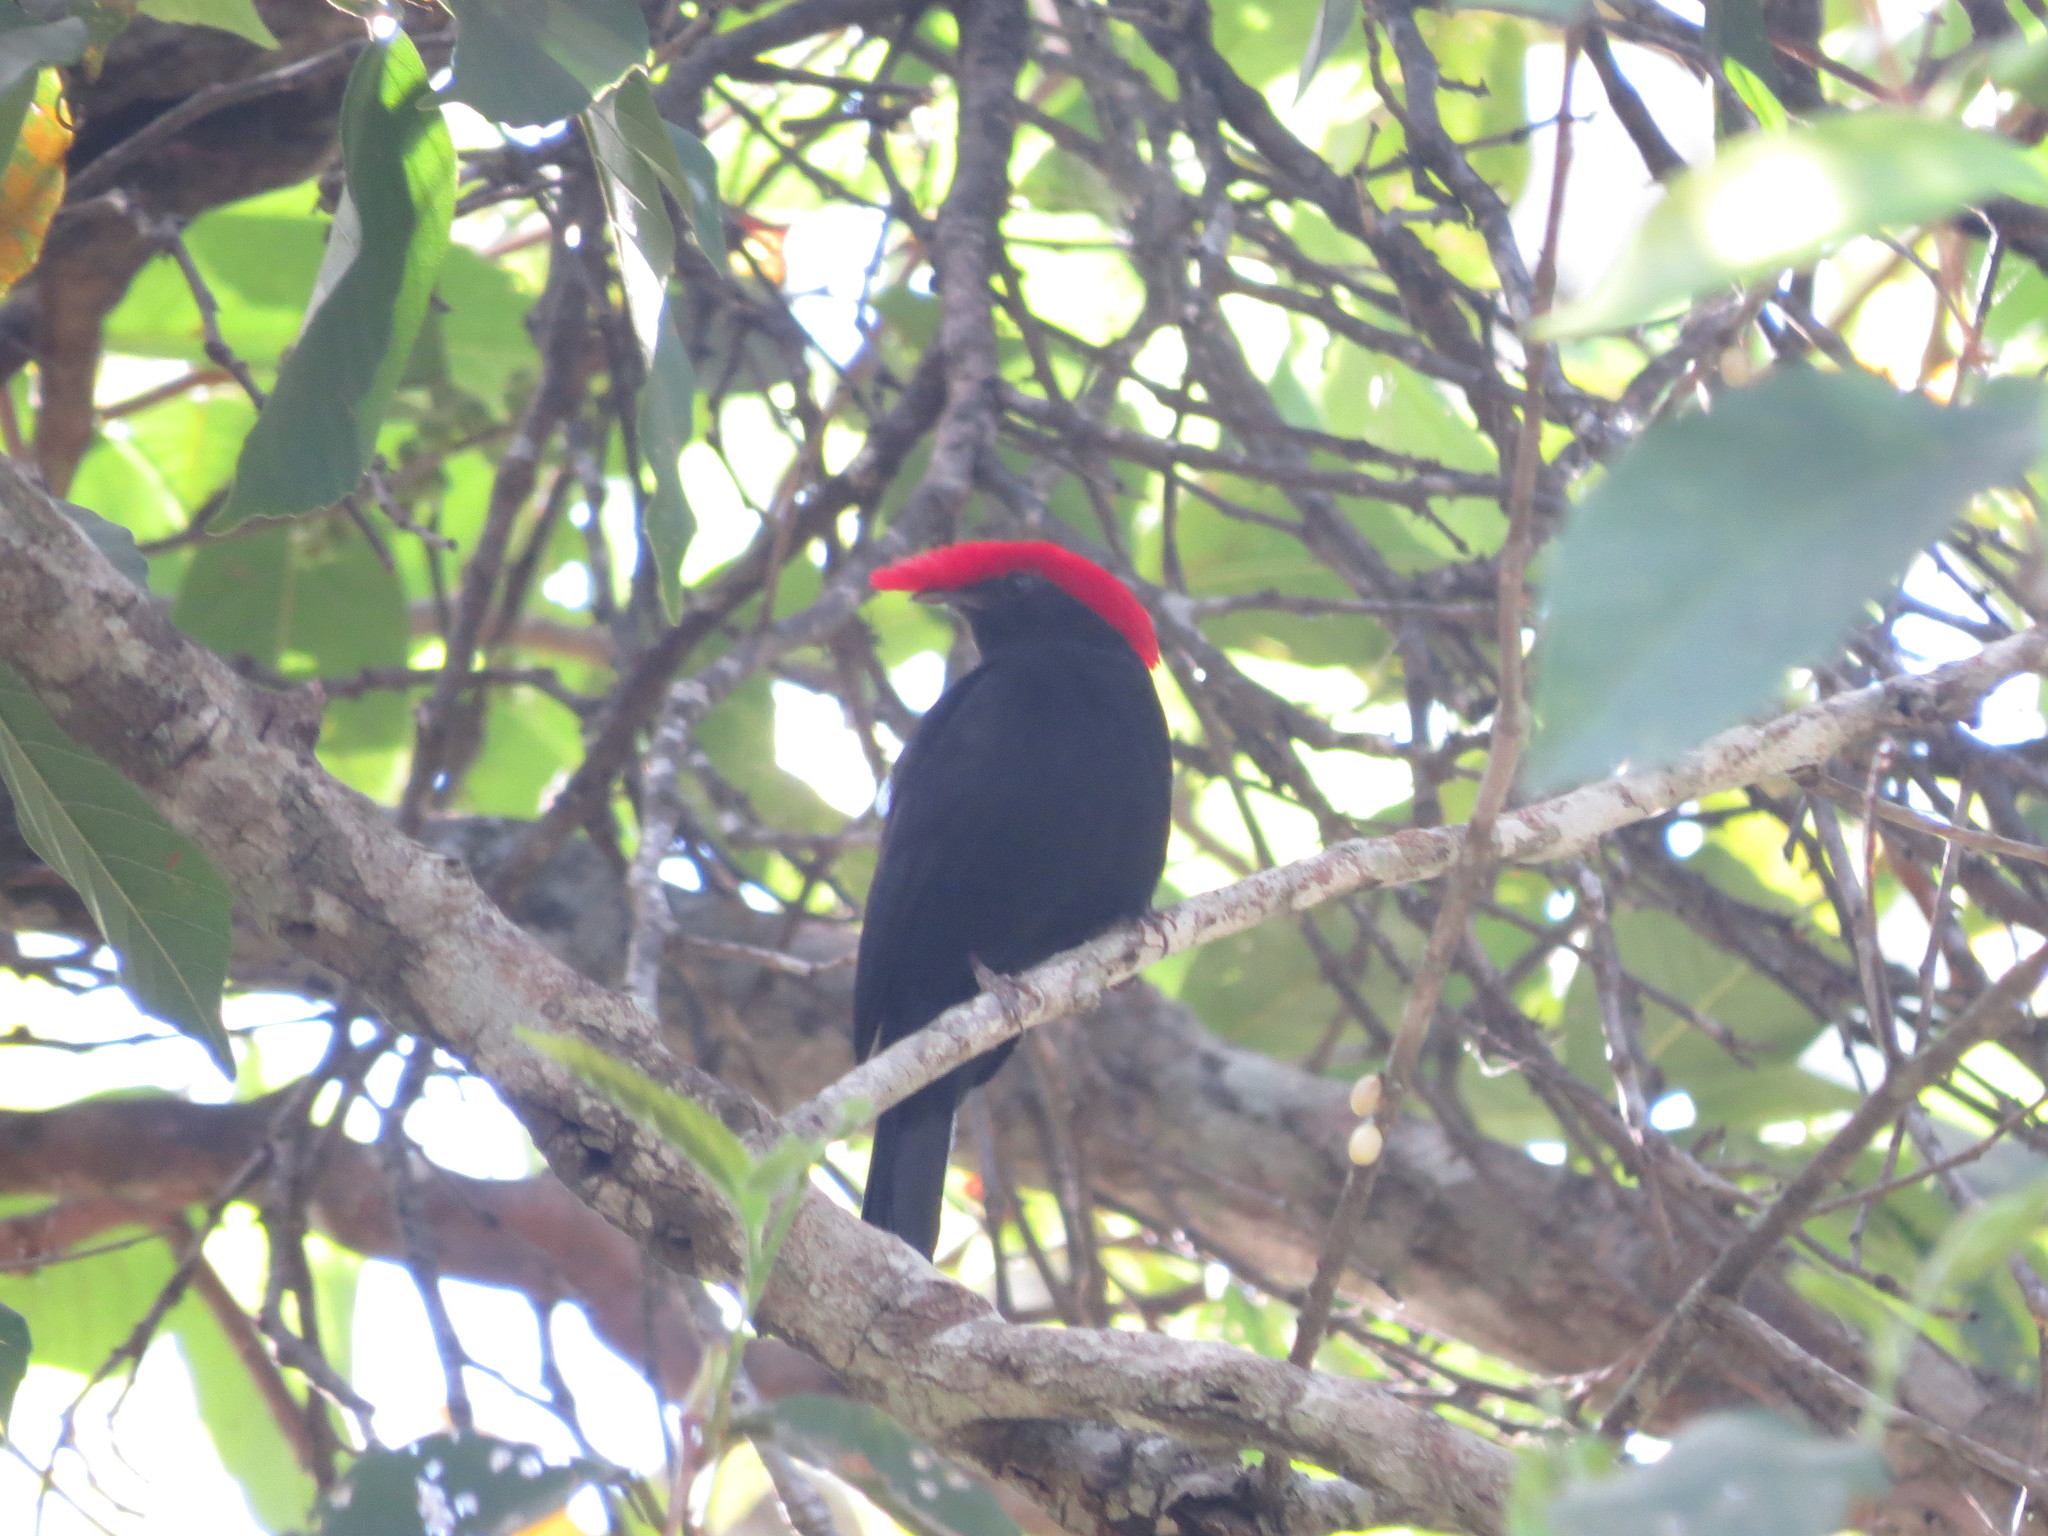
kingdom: Animalia
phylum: Chordata
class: Aves
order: Passeriformes
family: Pipridae
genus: Antilophia
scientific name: Antilophia galeata
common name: Helmeted manakin
